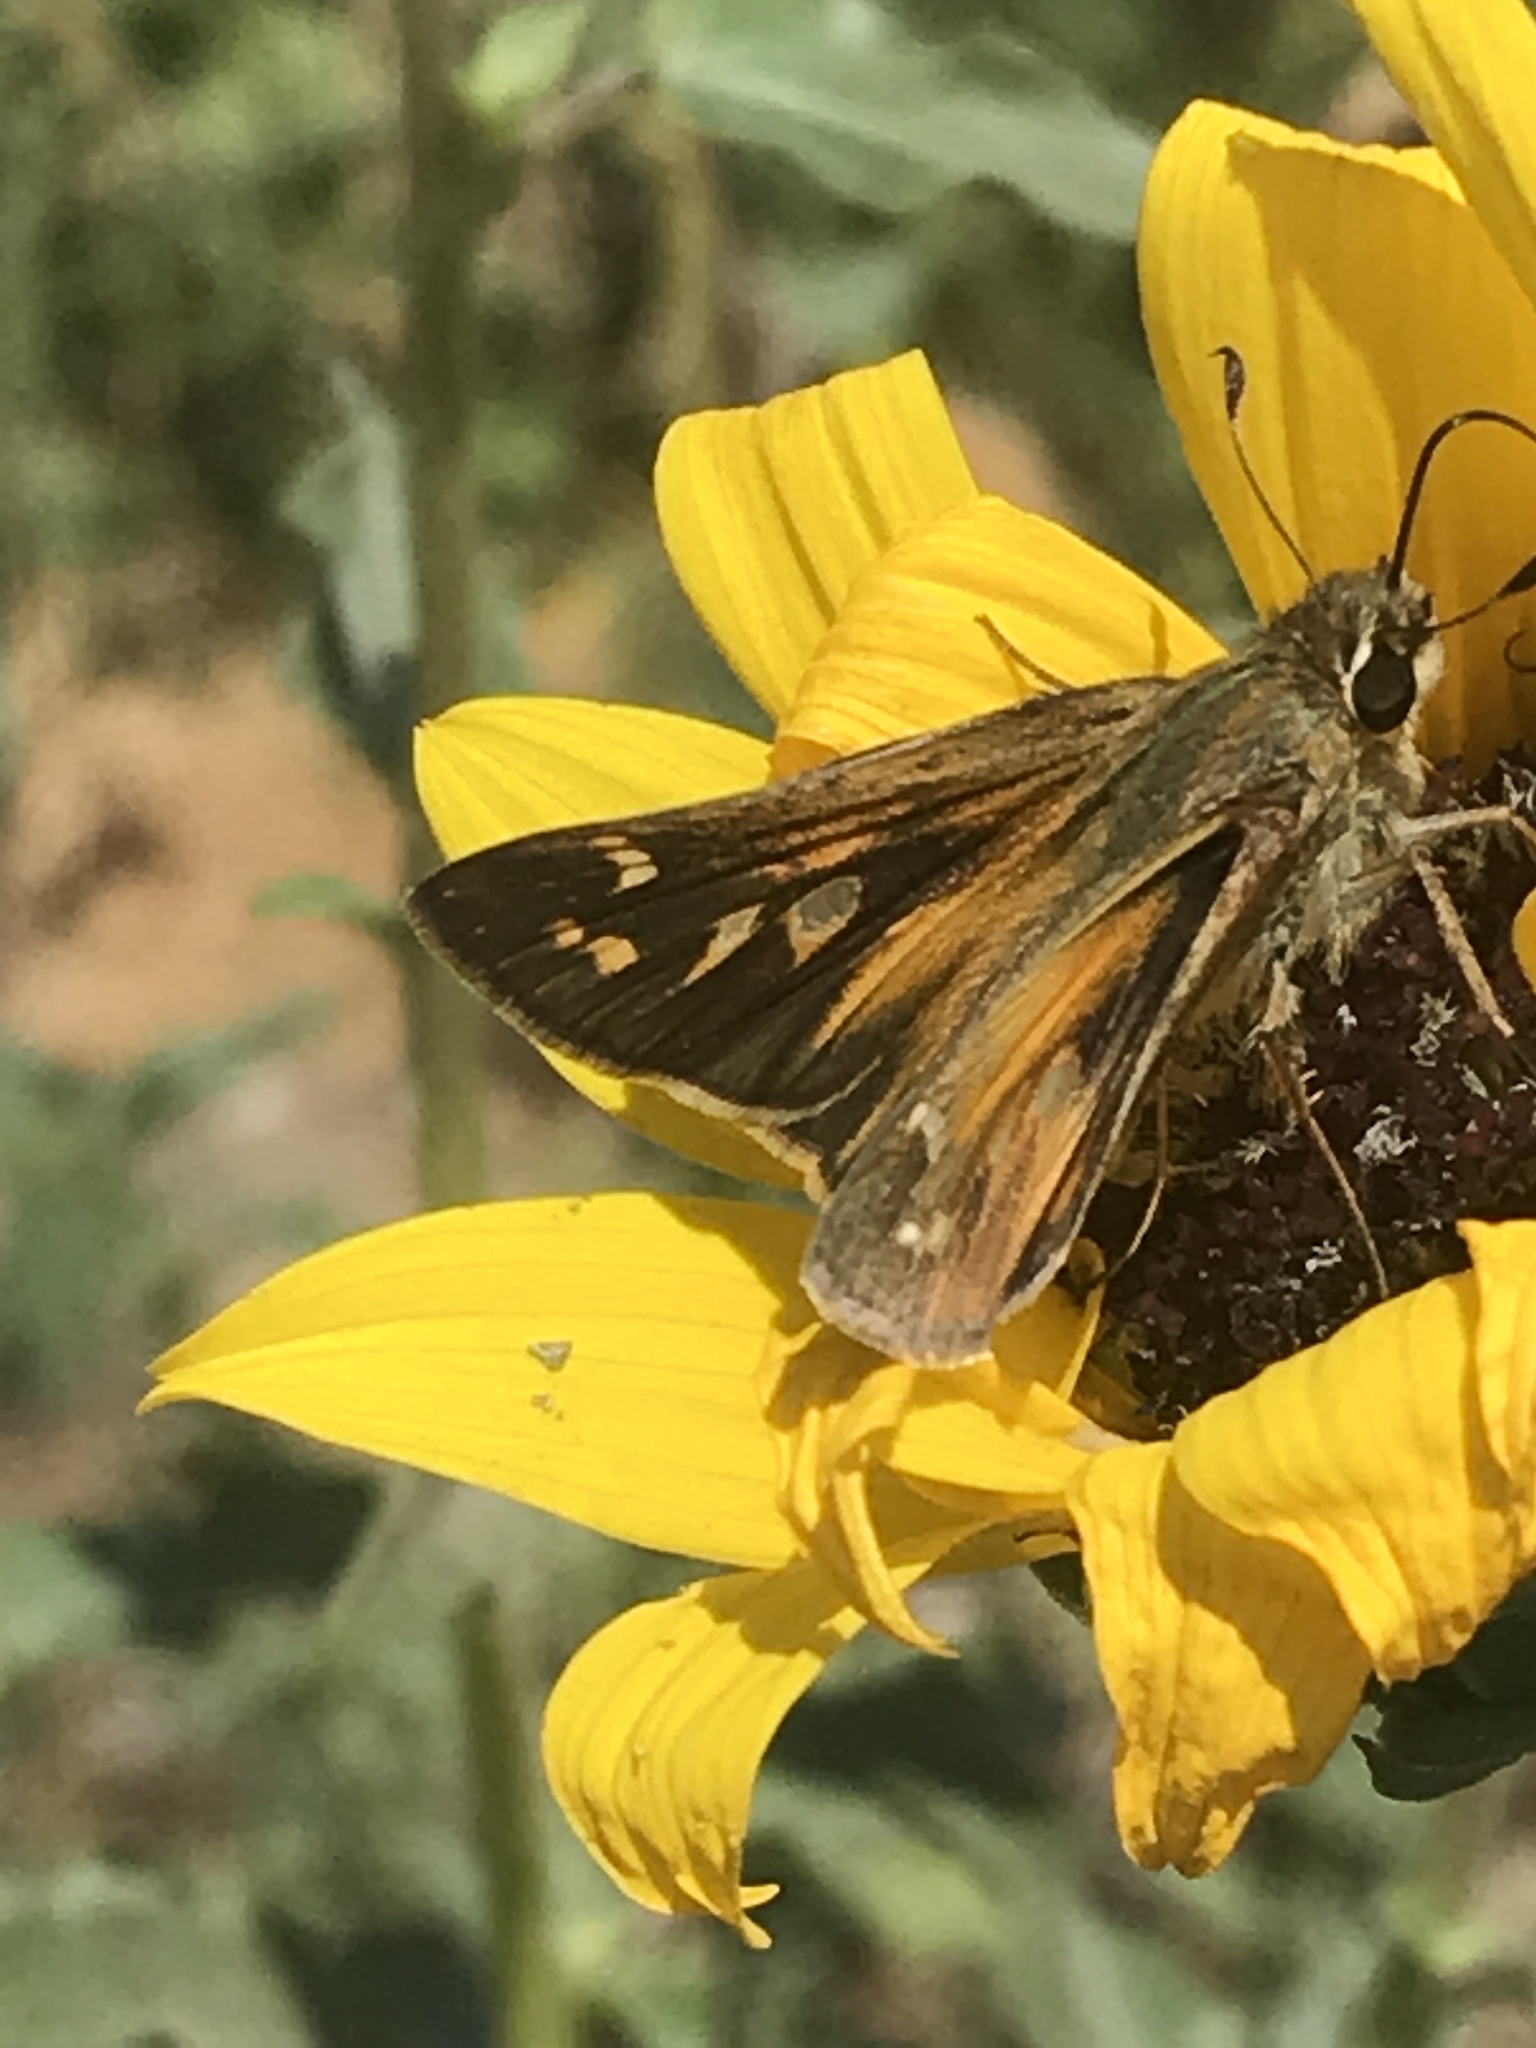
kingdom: Animalia
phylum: Arthropoda
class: Insecta
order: Lepidoptera
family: Hesperiidae
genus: Atalopedes
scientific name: Atalopedes
